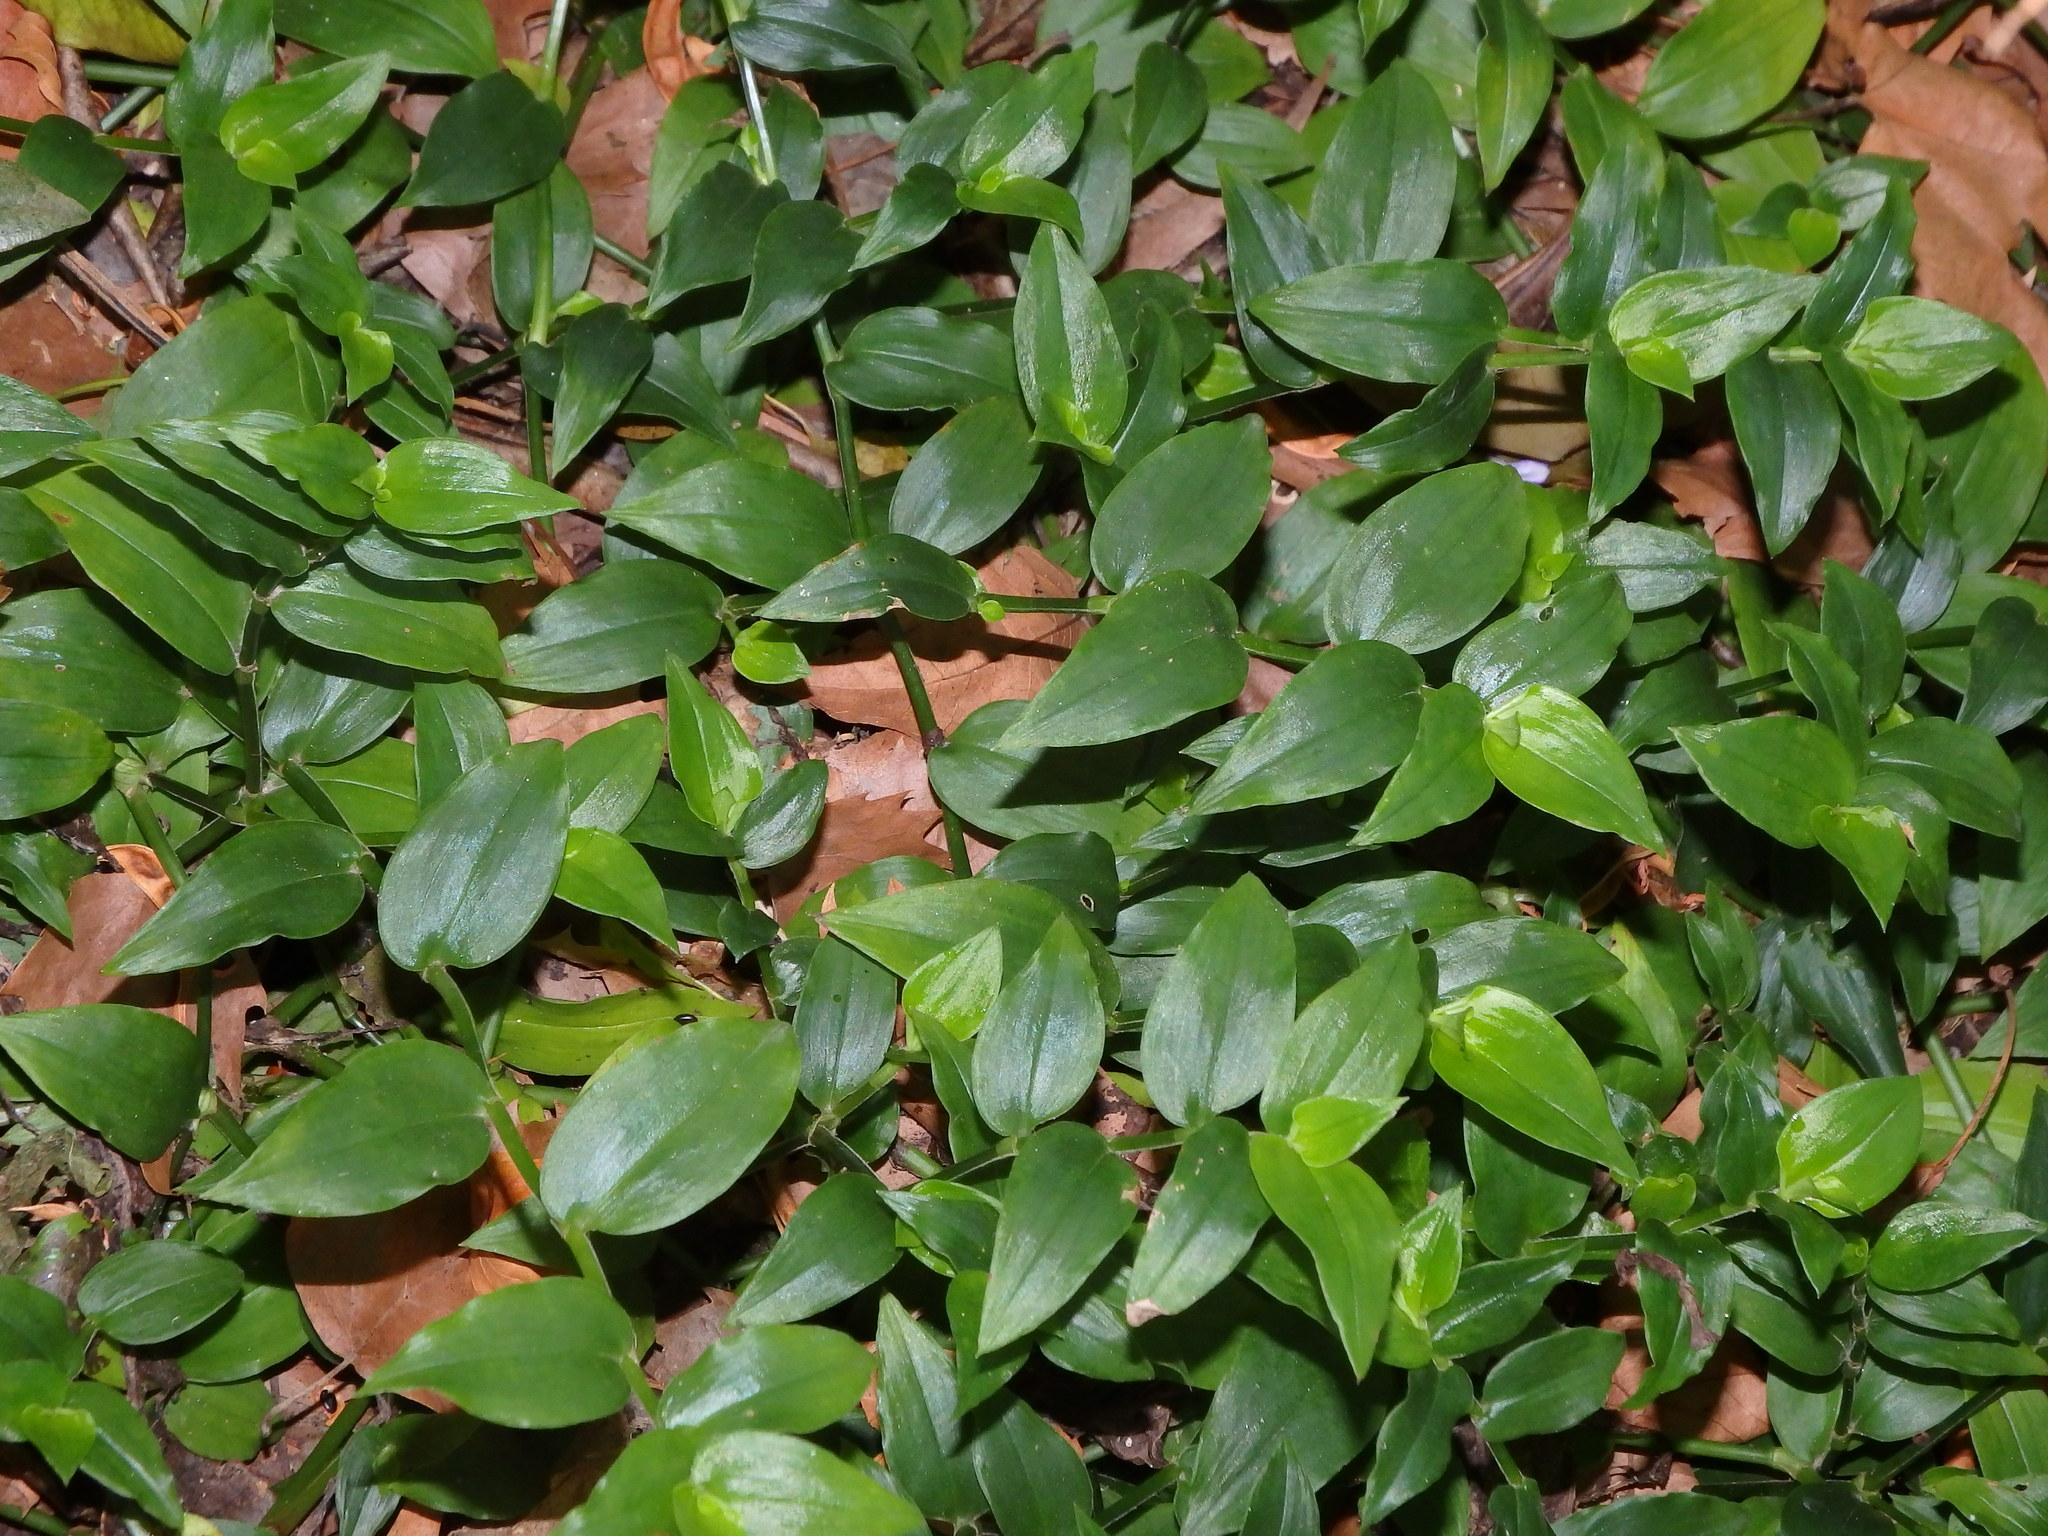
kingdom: Plantae
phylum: Tracheophyta
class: Liliopsida
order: Commelinales
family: Commelinaceae
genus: Tradescantia
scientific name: Tradescantia fluminensis
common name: Wandering-jew
